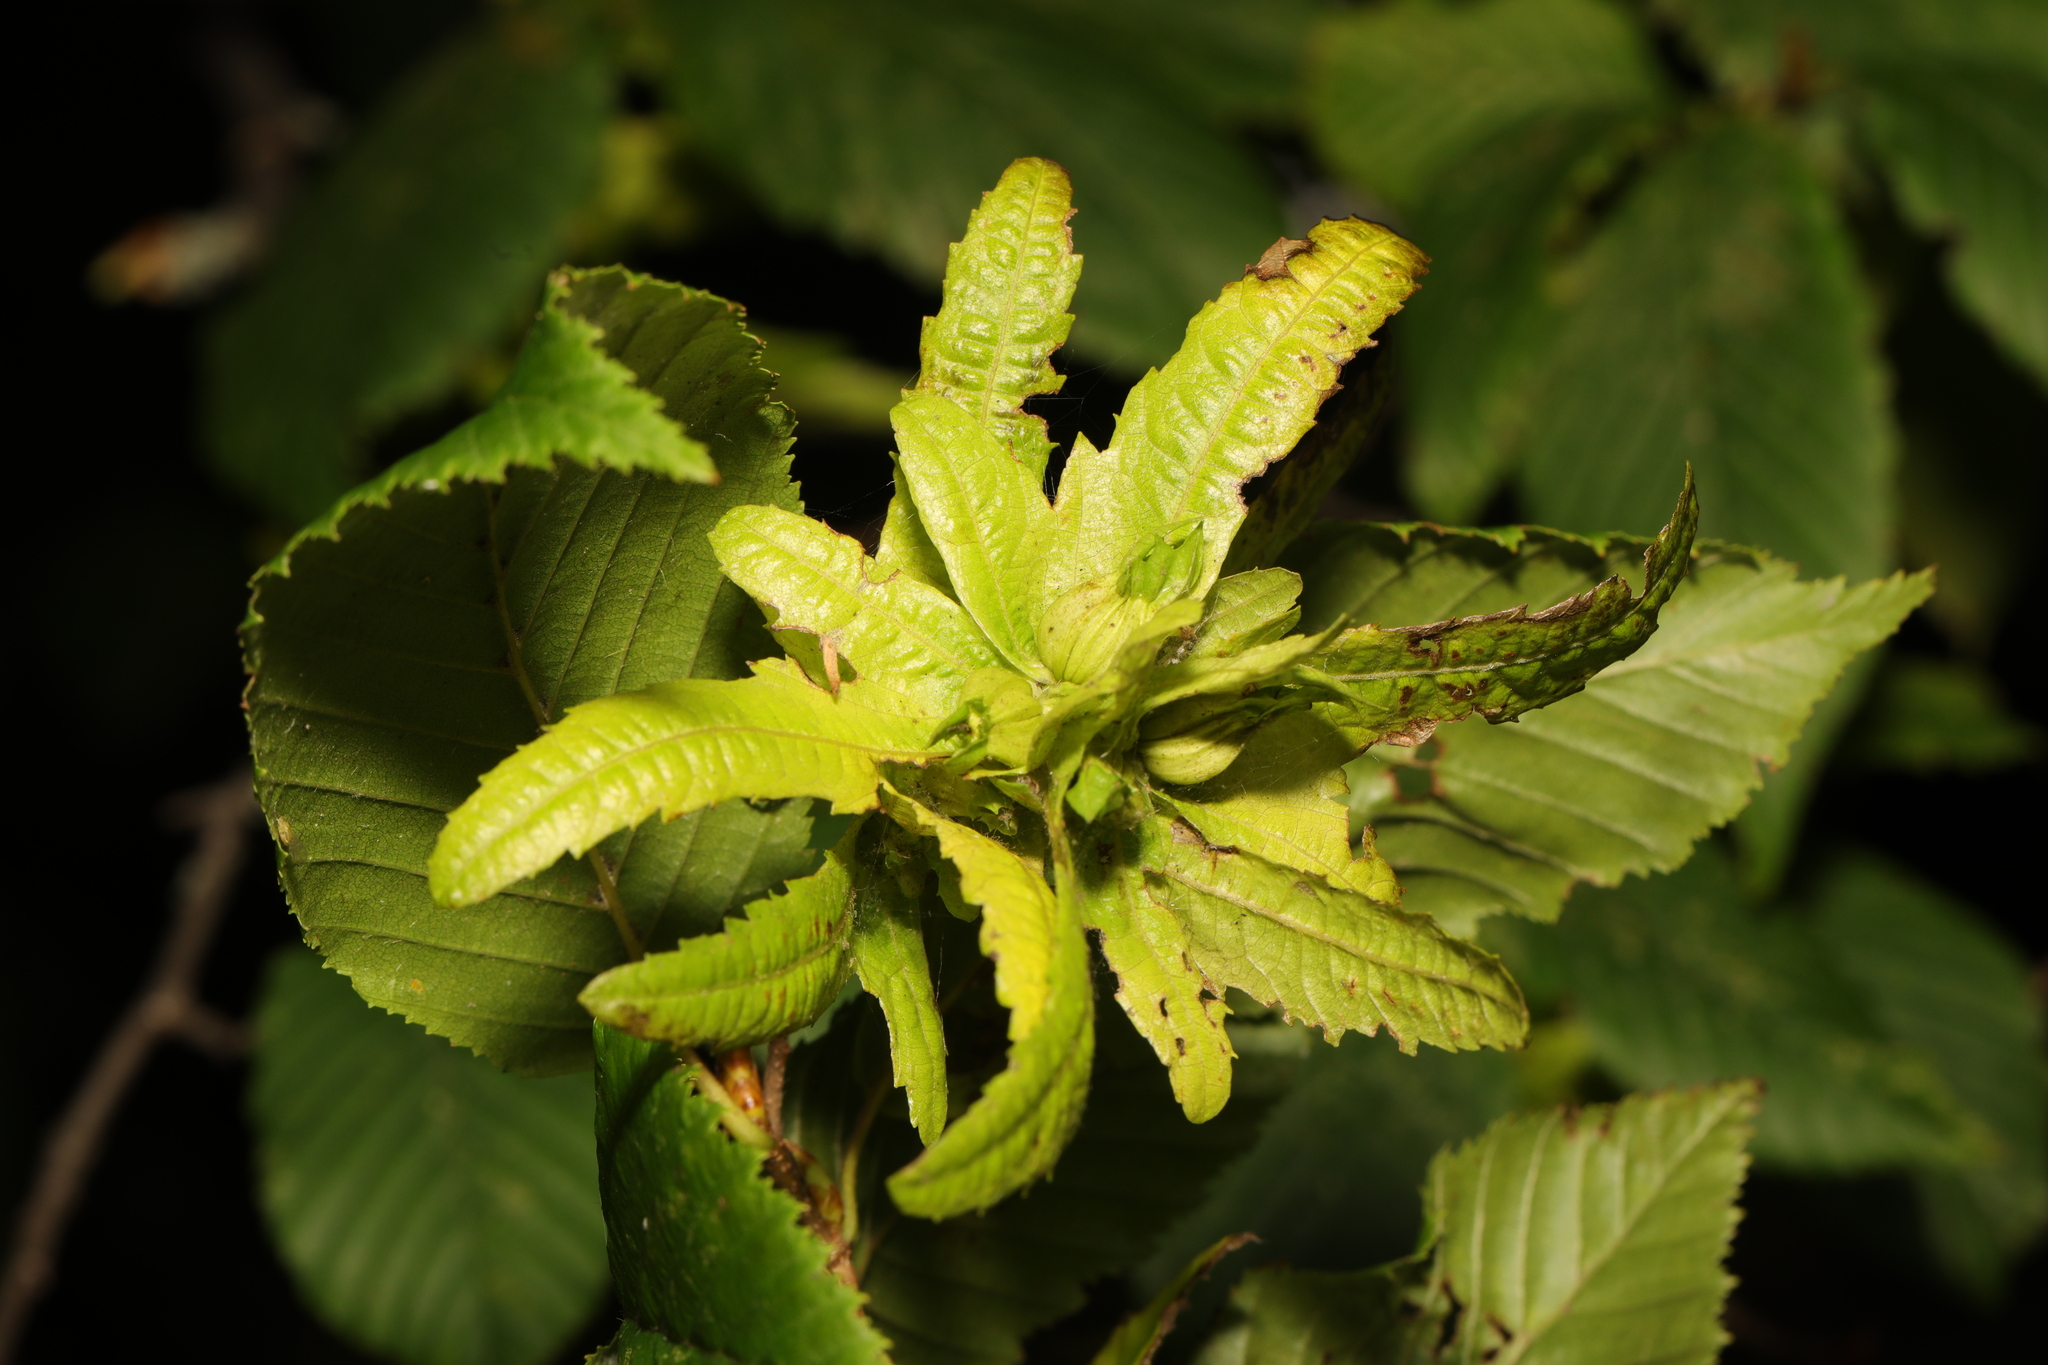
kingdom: Plantae
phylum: Tracheophyta
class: Magnoliopsida
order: Fagales
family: Betulaceae
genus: Carpinus
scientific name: Carpinus betulus
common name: Hornbeam
